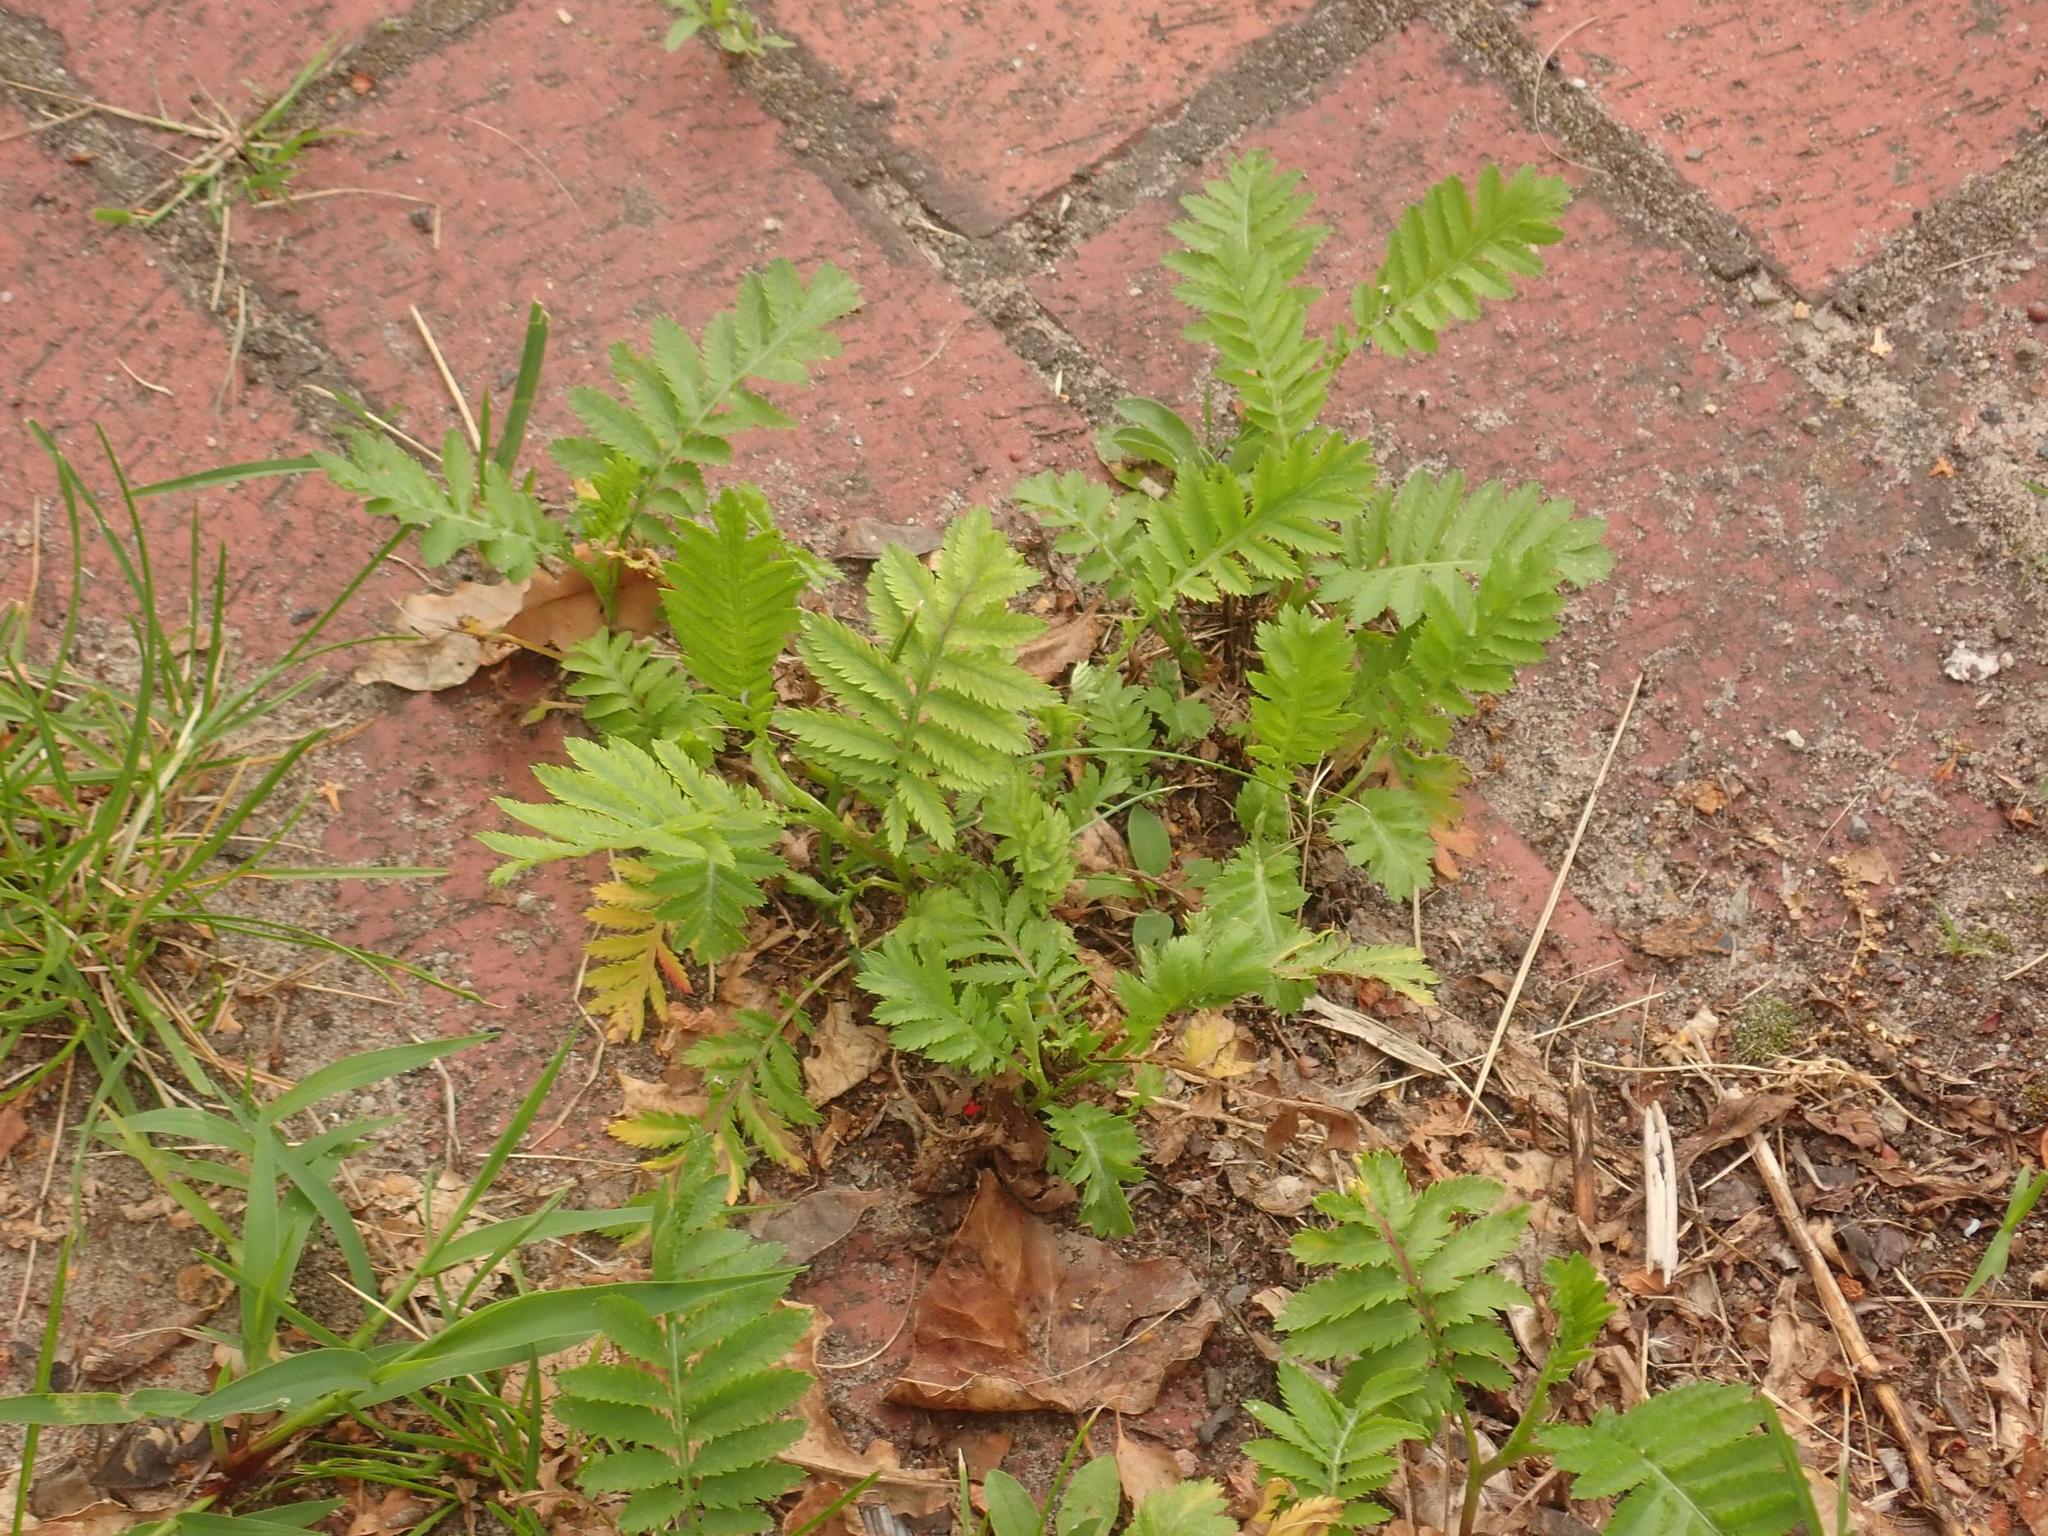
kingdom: Plantae
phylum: Tracheophyta
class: Magnoliopsida
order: Asterales
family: Asteraceae
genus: Tanacetum
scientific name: Tanacetum vulgare
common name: Common tansy
